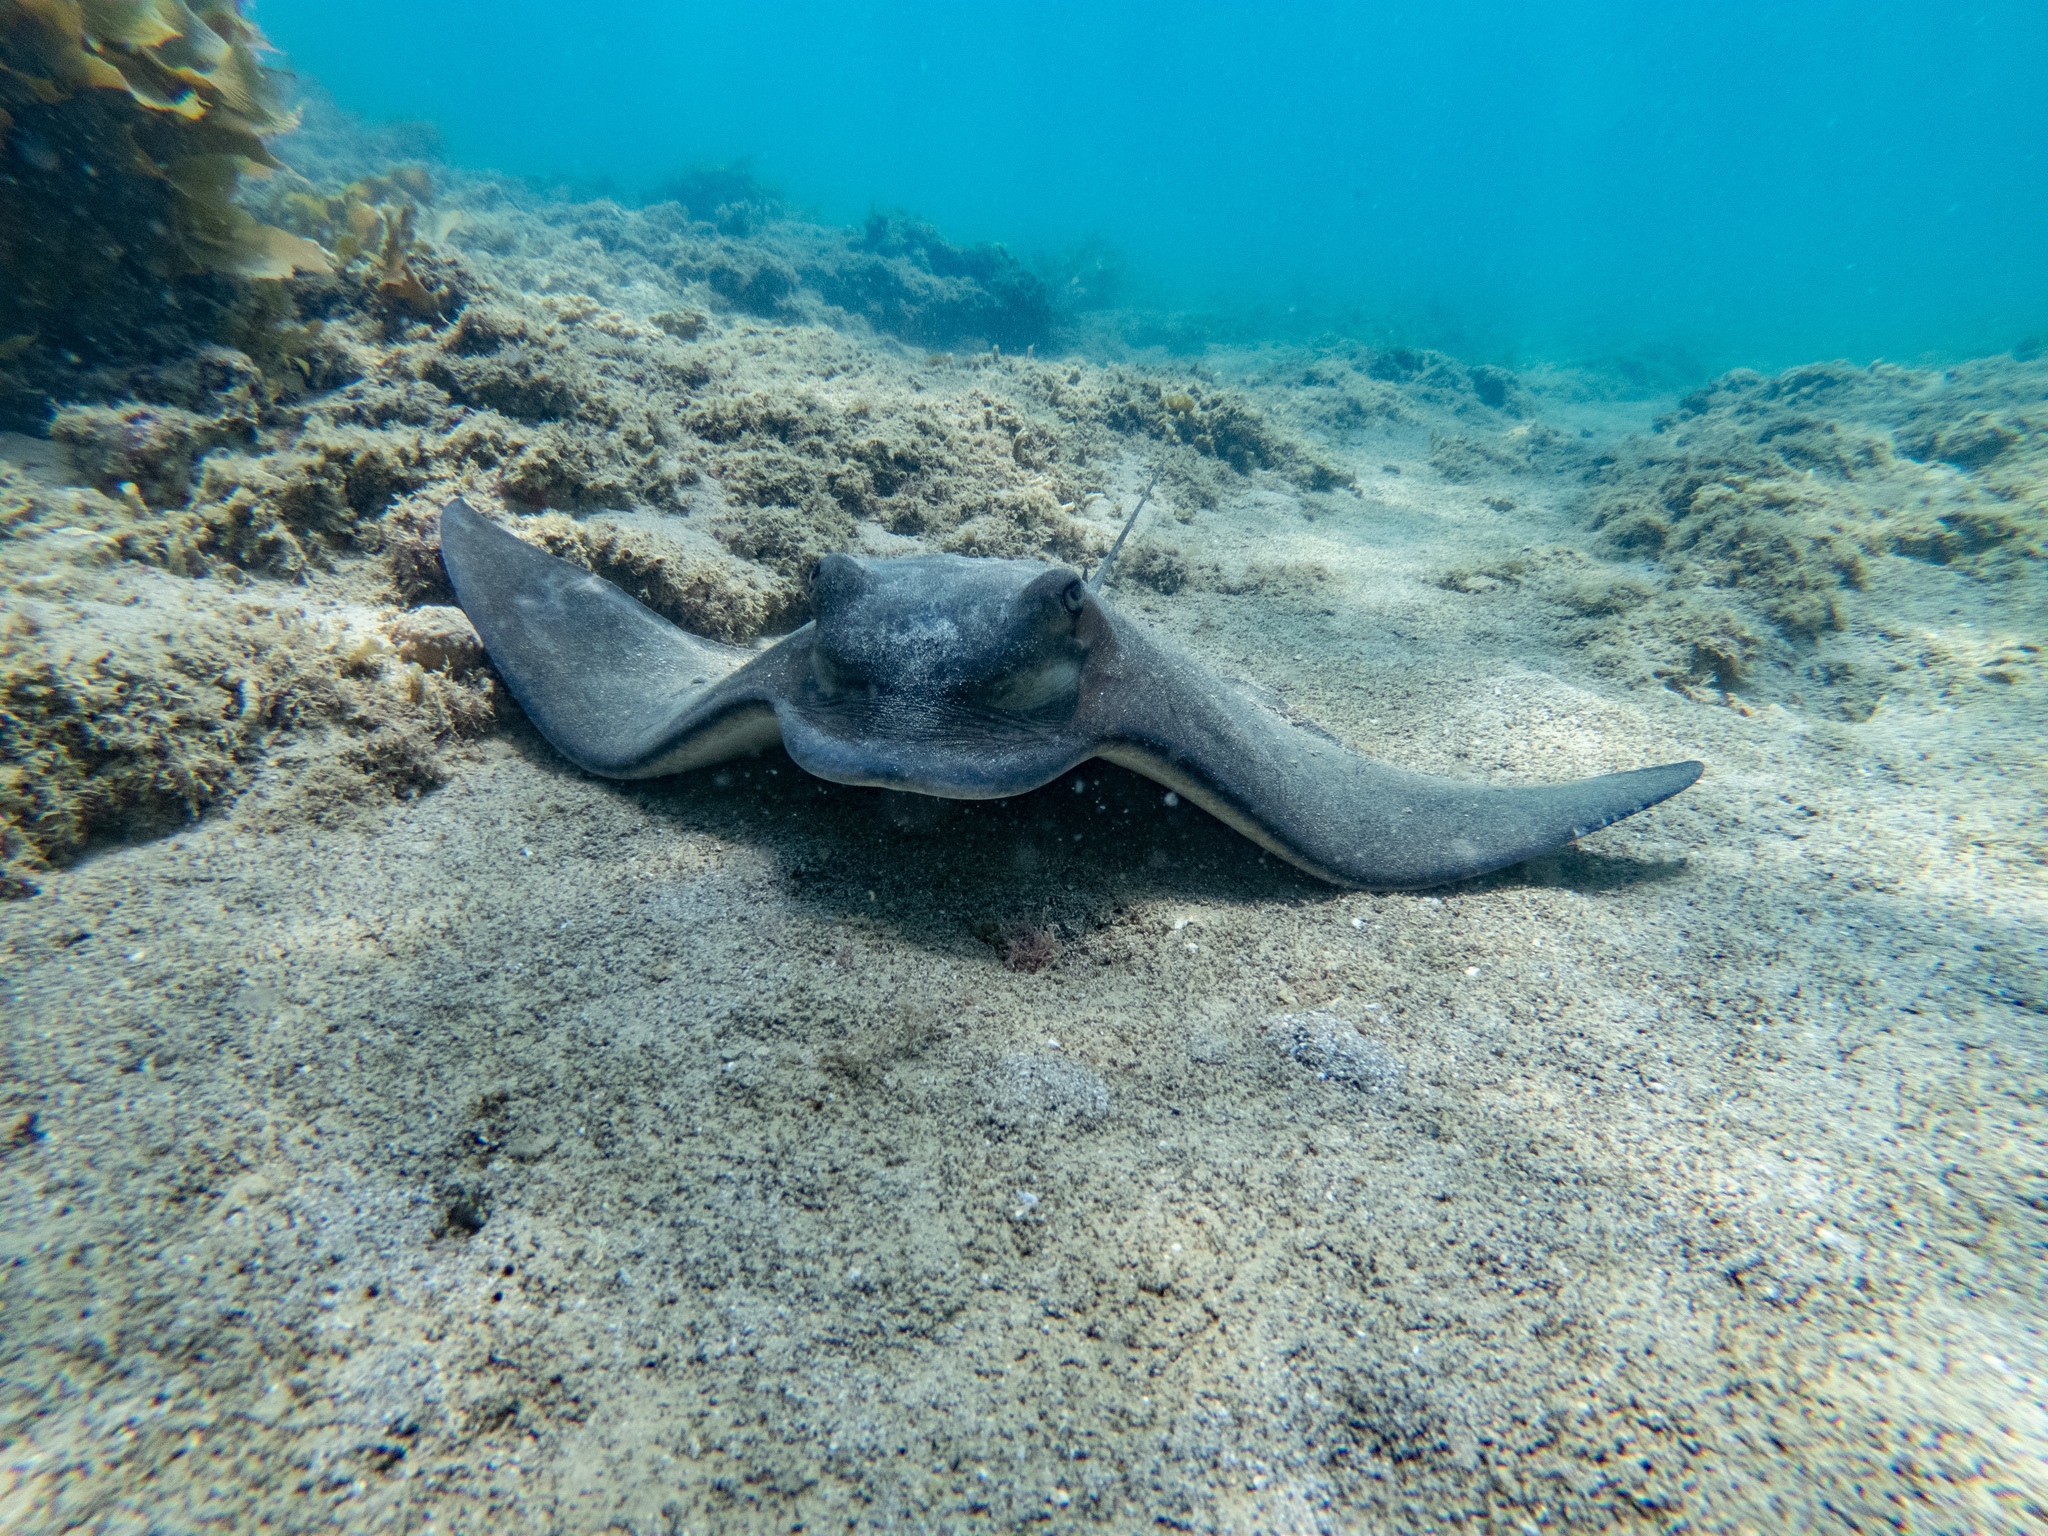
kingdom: Animalia
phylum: Chordata
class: Elasmobranchii
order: Myliobatiformes
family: Myliobatidae
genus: Myliobatis
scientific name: Myliobatis tenuicaudatus
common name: Eagle ray
